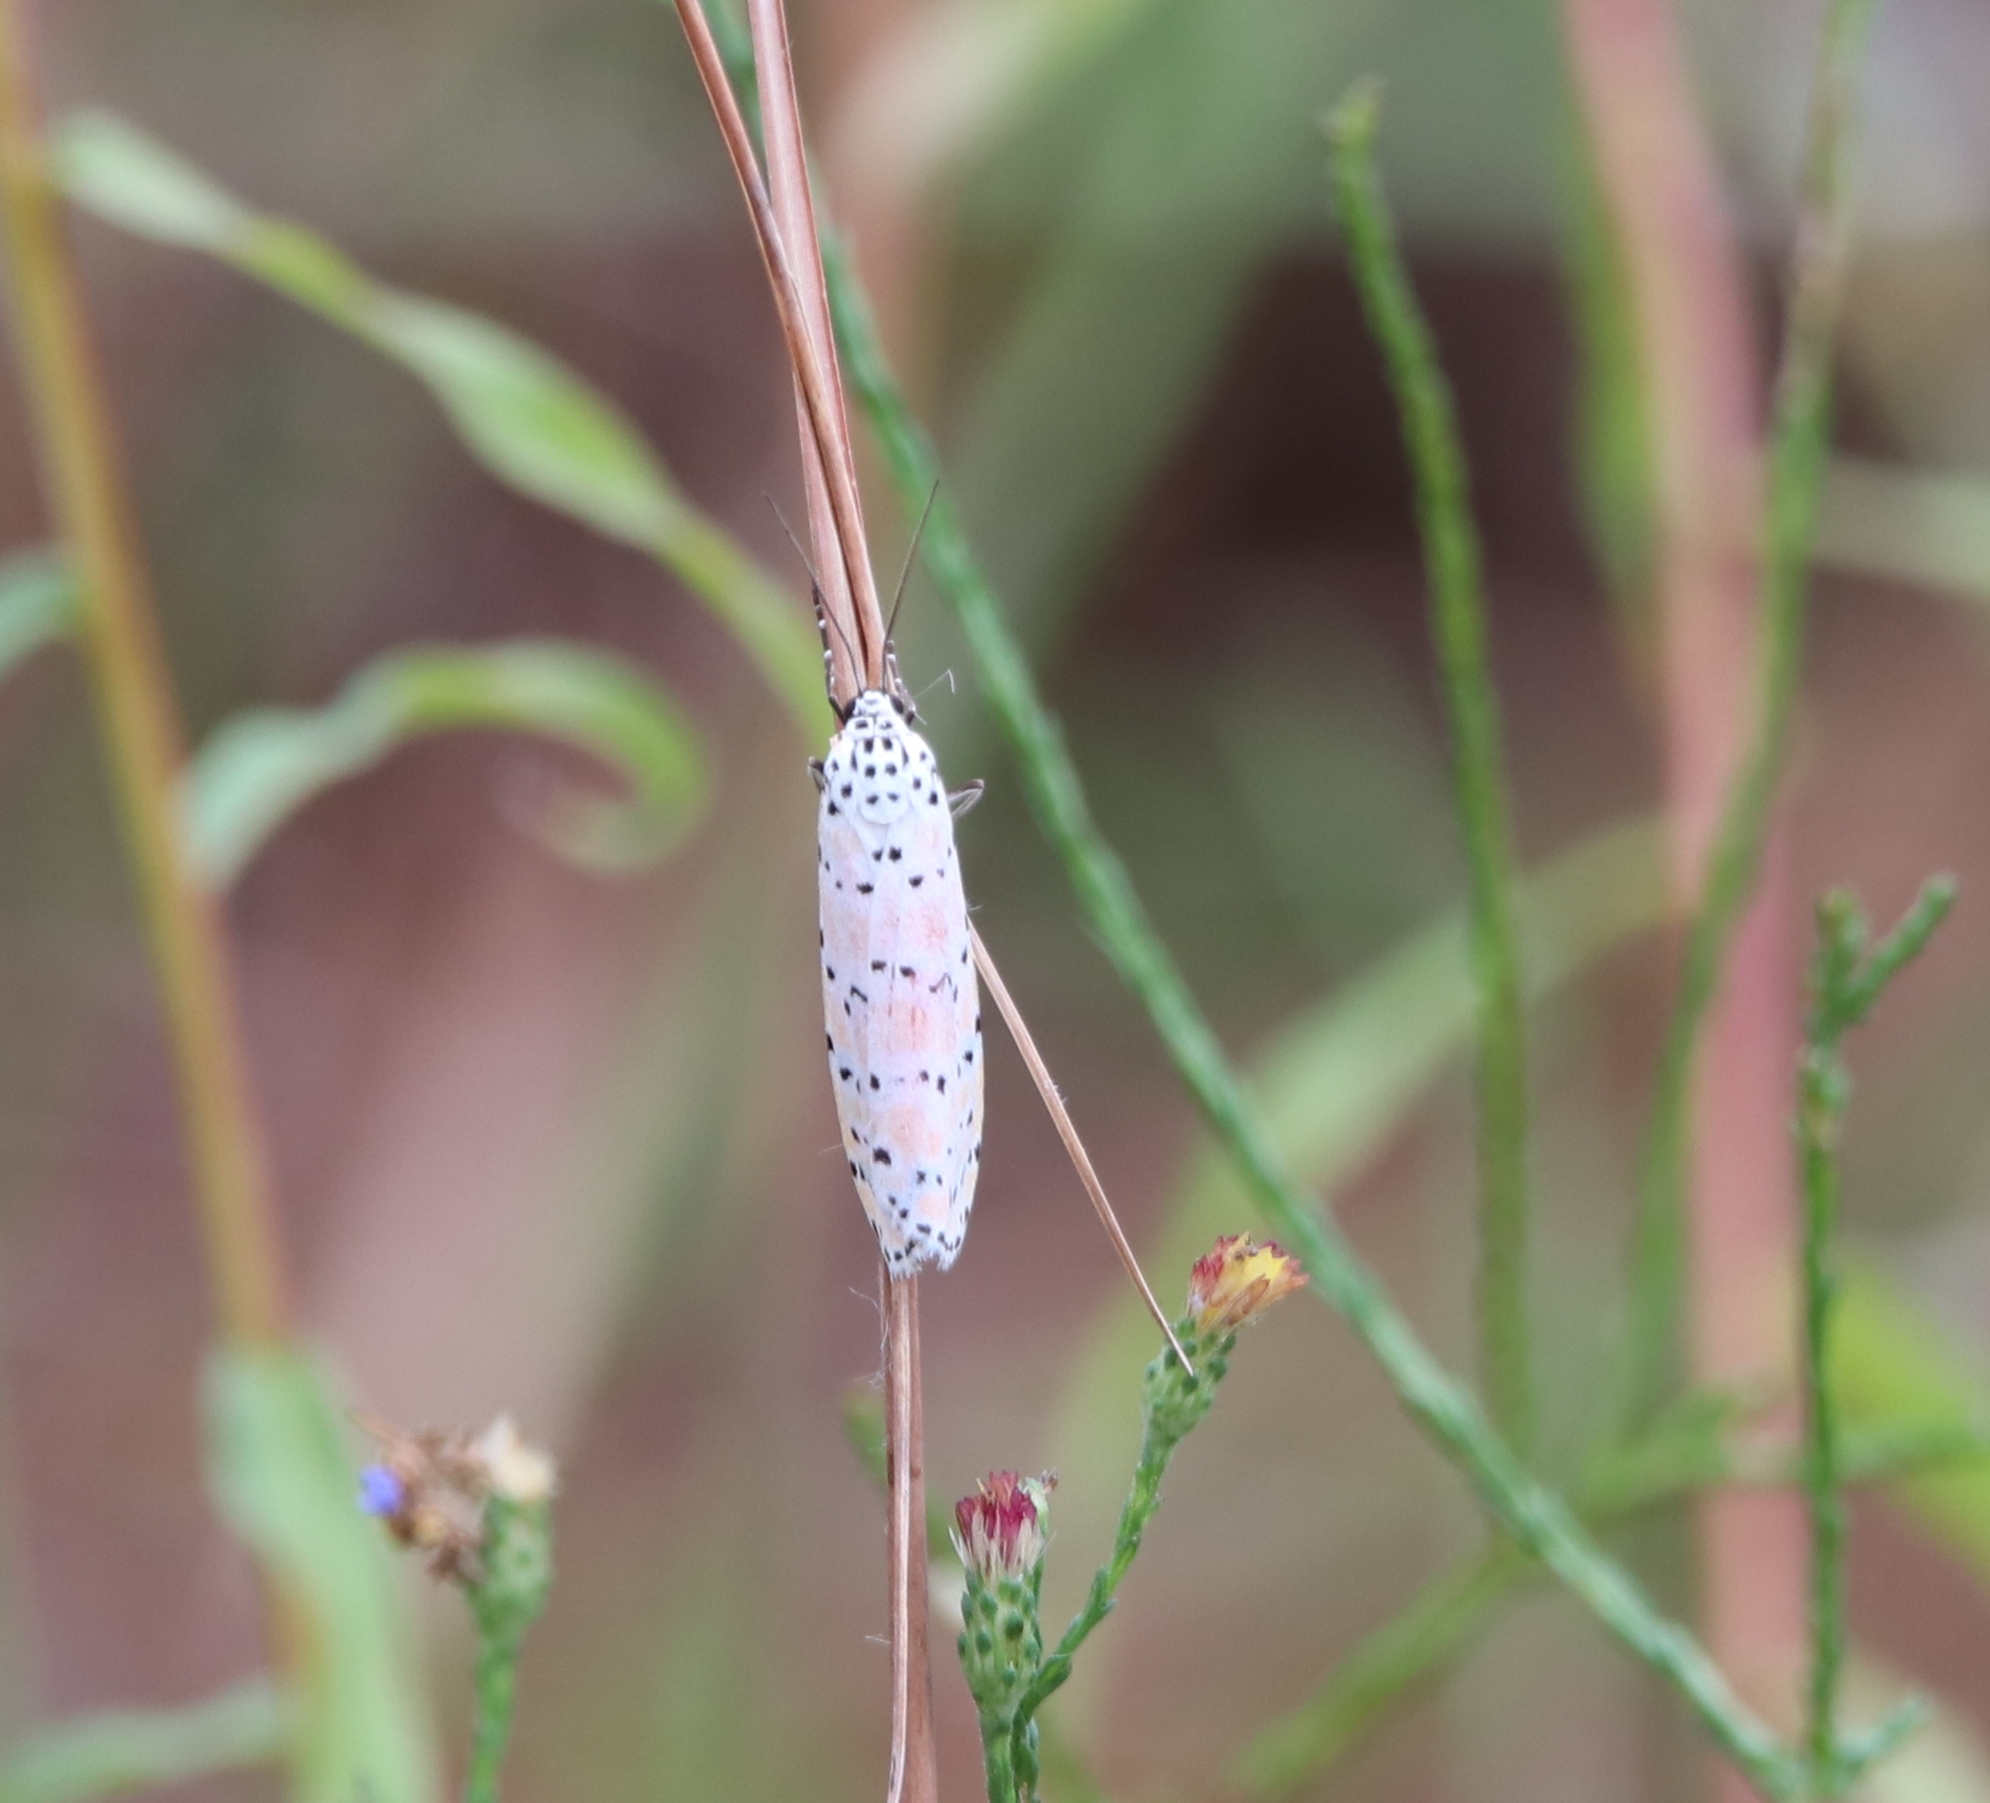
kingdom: Animalia
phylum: Arthropoda
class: Insecta
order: Lepidoptera
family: Erebidae
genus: Utetheisa
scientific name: Utetheisa ornatrix
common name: Beautiful utetheisa
